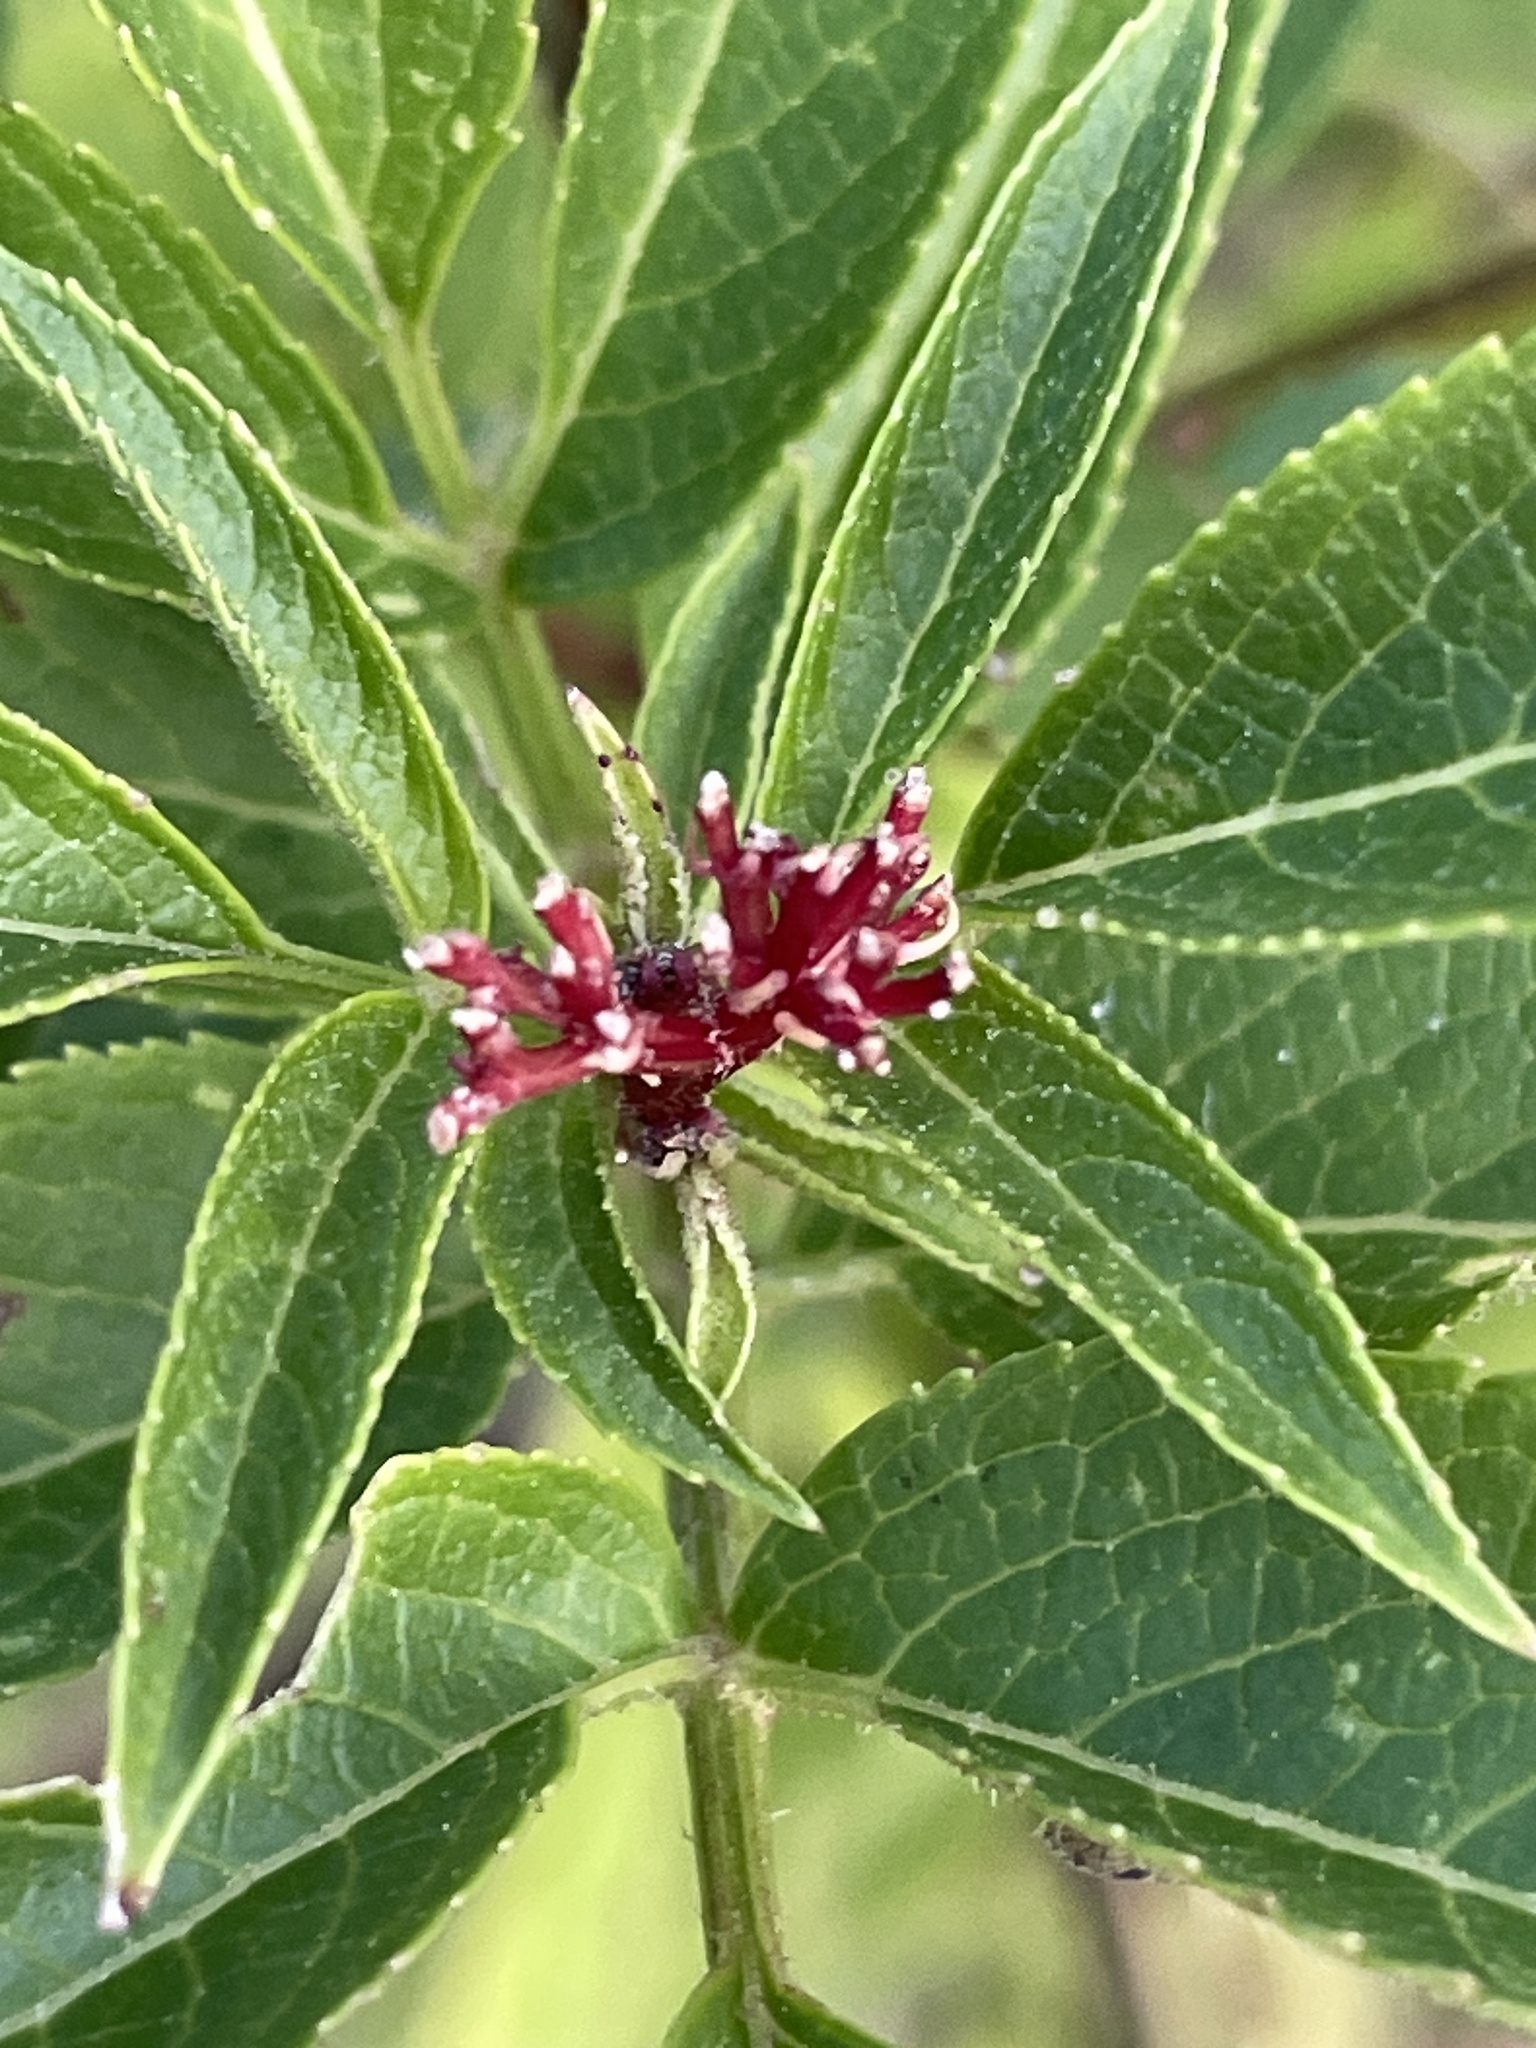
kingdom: Plantae
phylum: Tracheophyta
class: Magnoliopsida
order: Dipsacales
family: Viburnaceae
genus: Sambucus
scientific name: Sambucus ebulus
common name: Dwarf elder
